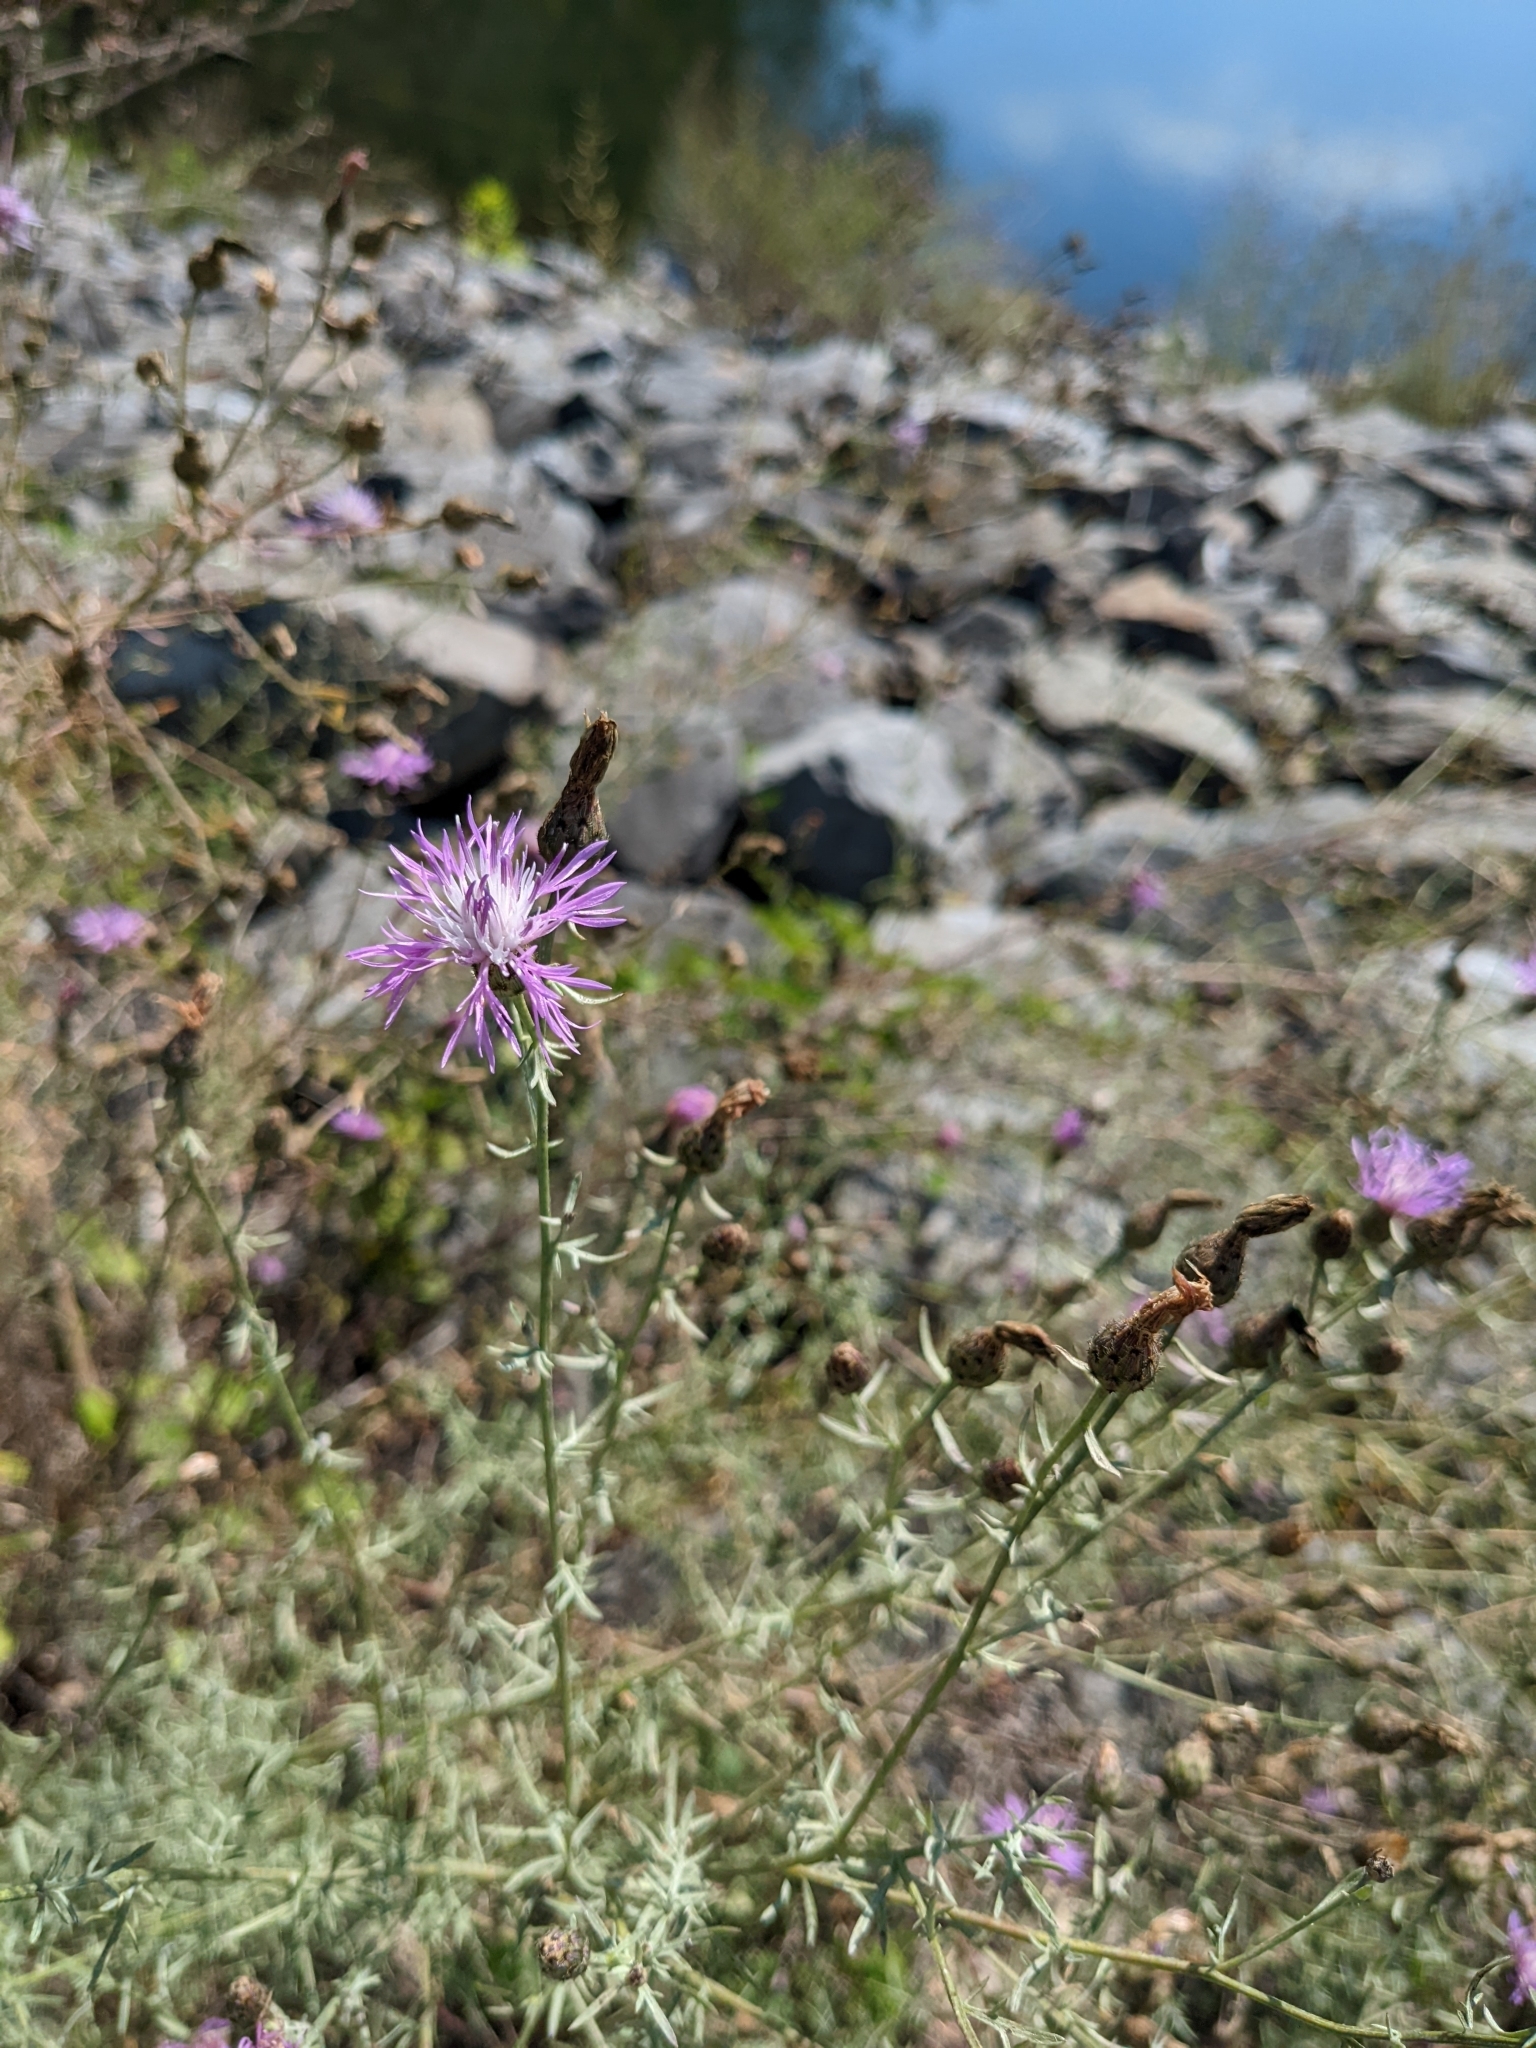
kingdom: Plantae
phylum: Tracheophyta
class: Magnoliopsida
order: Asterales
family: Asteraceae
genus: Centaurea
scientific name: Centaurea stoebe
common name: Spotted knapweed
